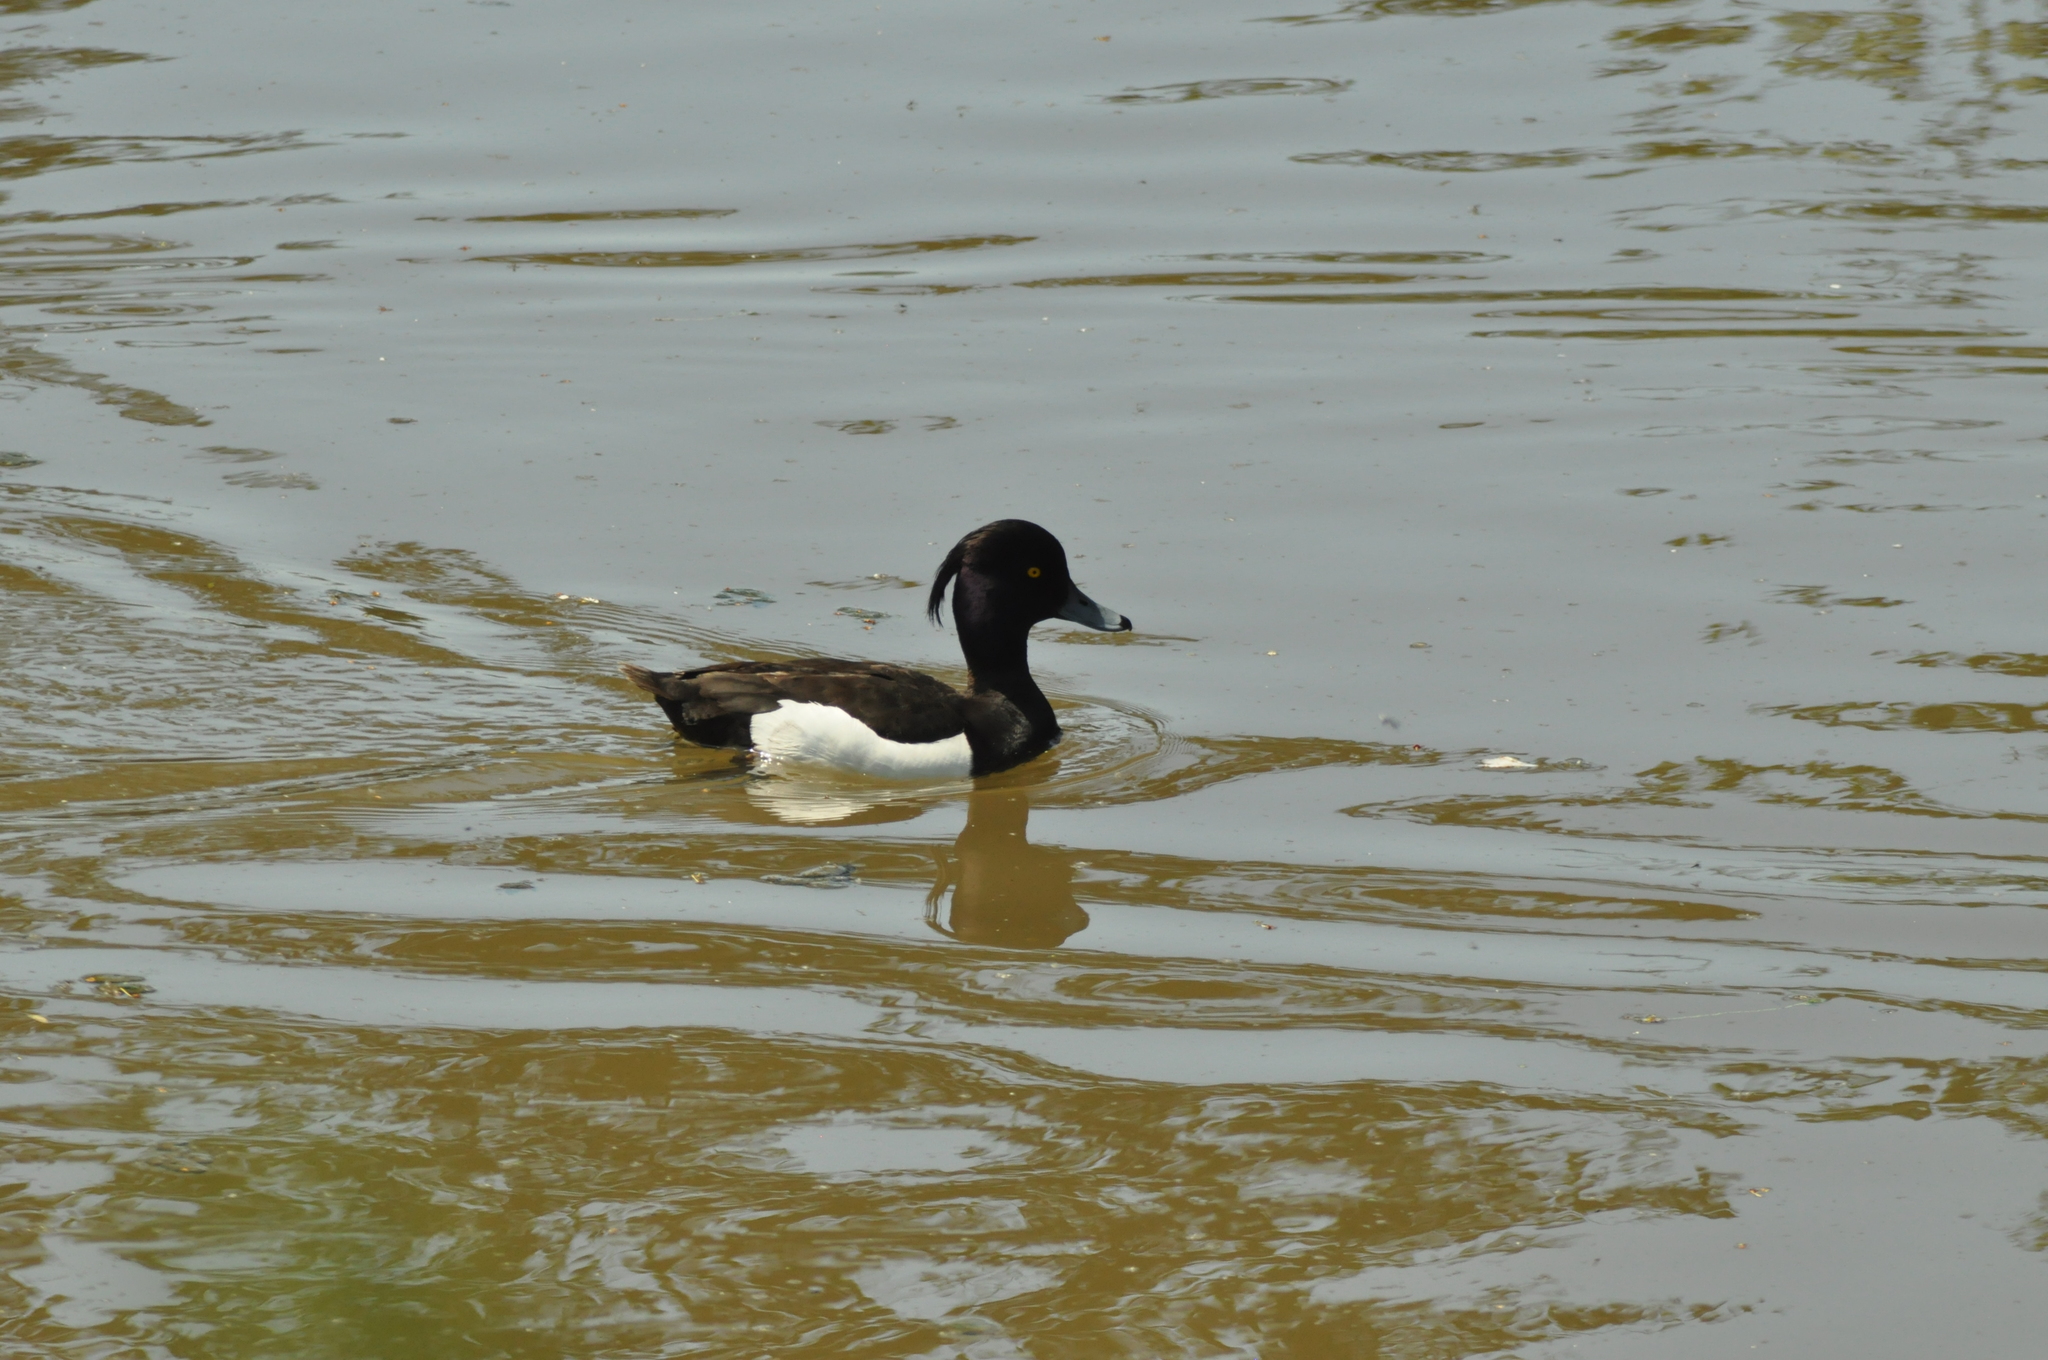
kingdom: Animalia
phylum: Chordata
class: Aves
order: Anseriformes
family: Anatidae
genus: Aythya
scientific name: Aythya fuligula
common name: Tufted duck
